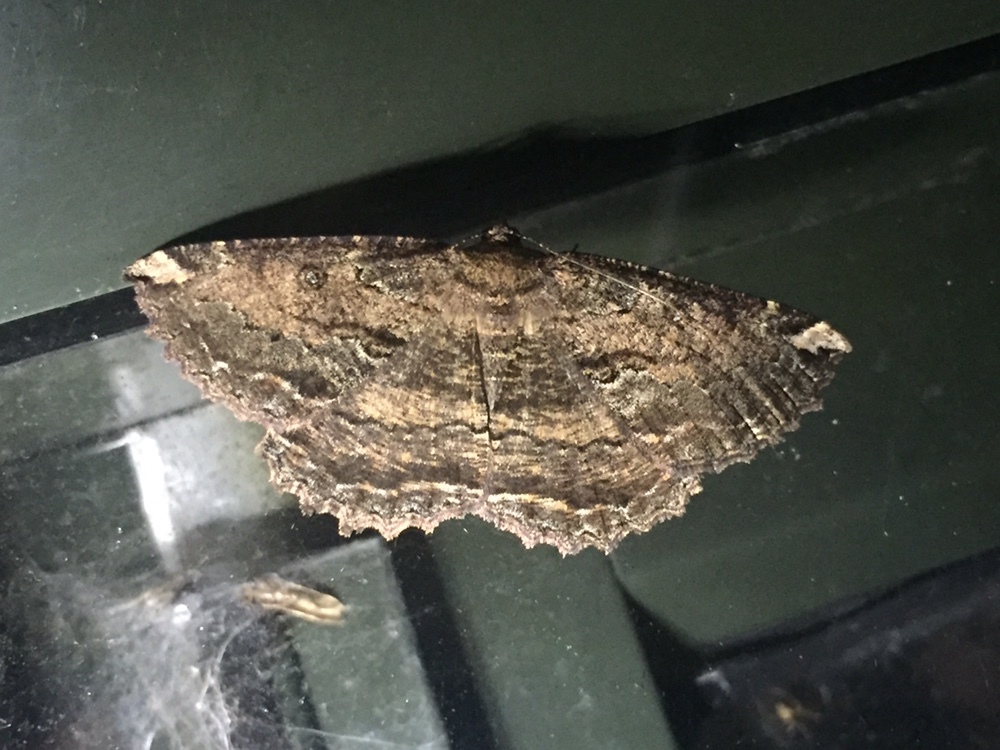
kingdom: Animalia
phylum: Arthropoda
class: Insecta
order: Lepidoptera
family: Geometridae
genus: Gellonia
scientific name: Gellonia dejectaria
